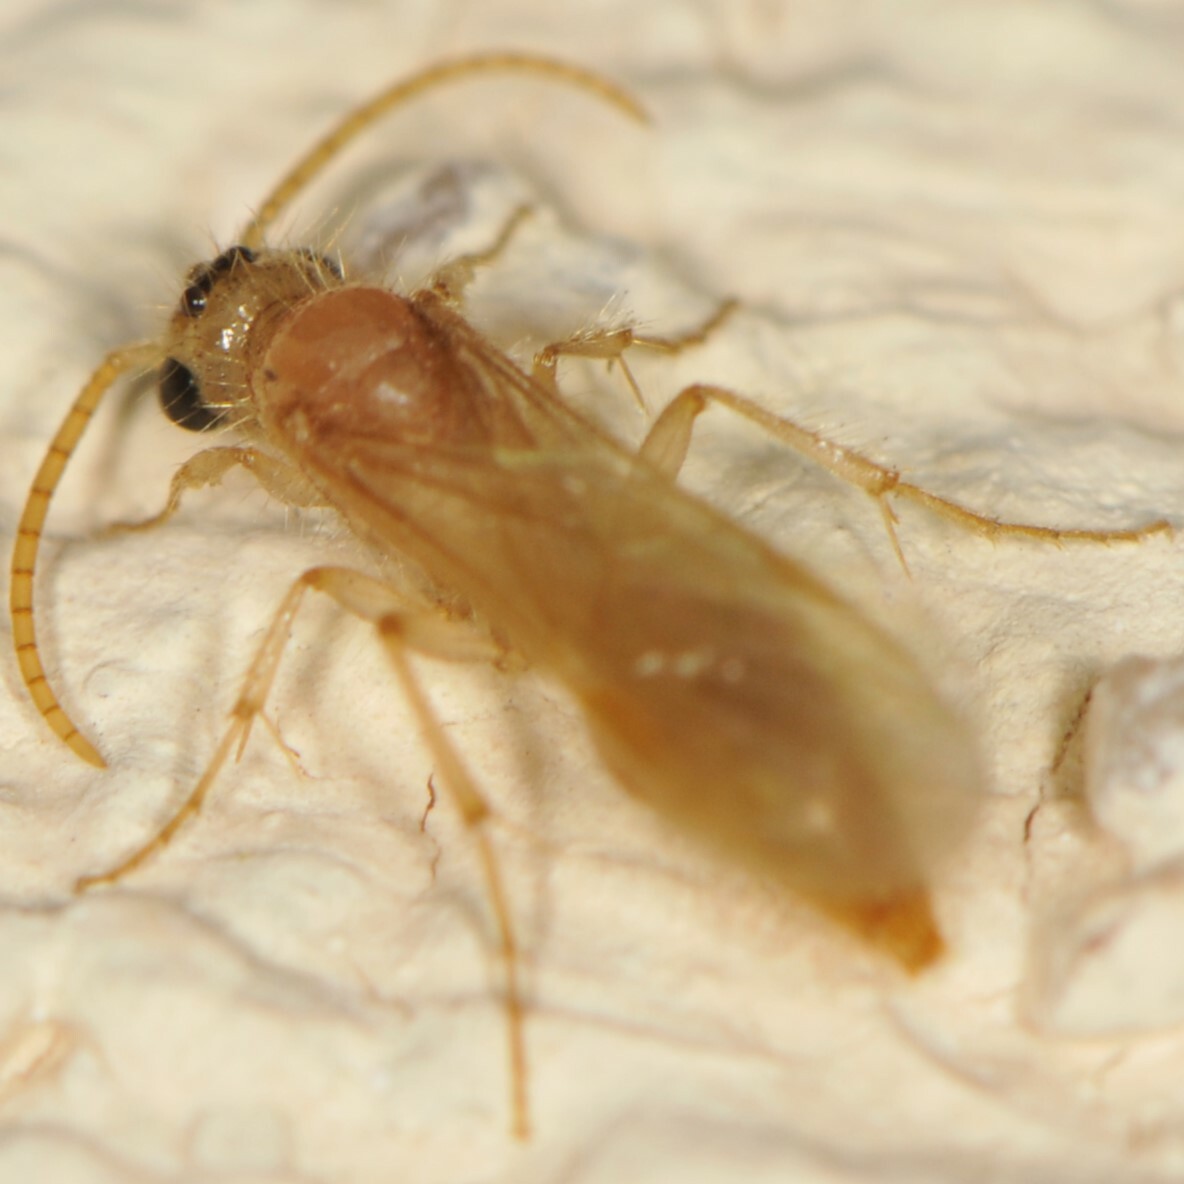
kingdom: Animalia
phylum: Arthropoda
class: Insecta
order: Hymenoptera
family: Mutillidae
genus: Sphaeropthalma
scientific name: Sphaeropthalma
